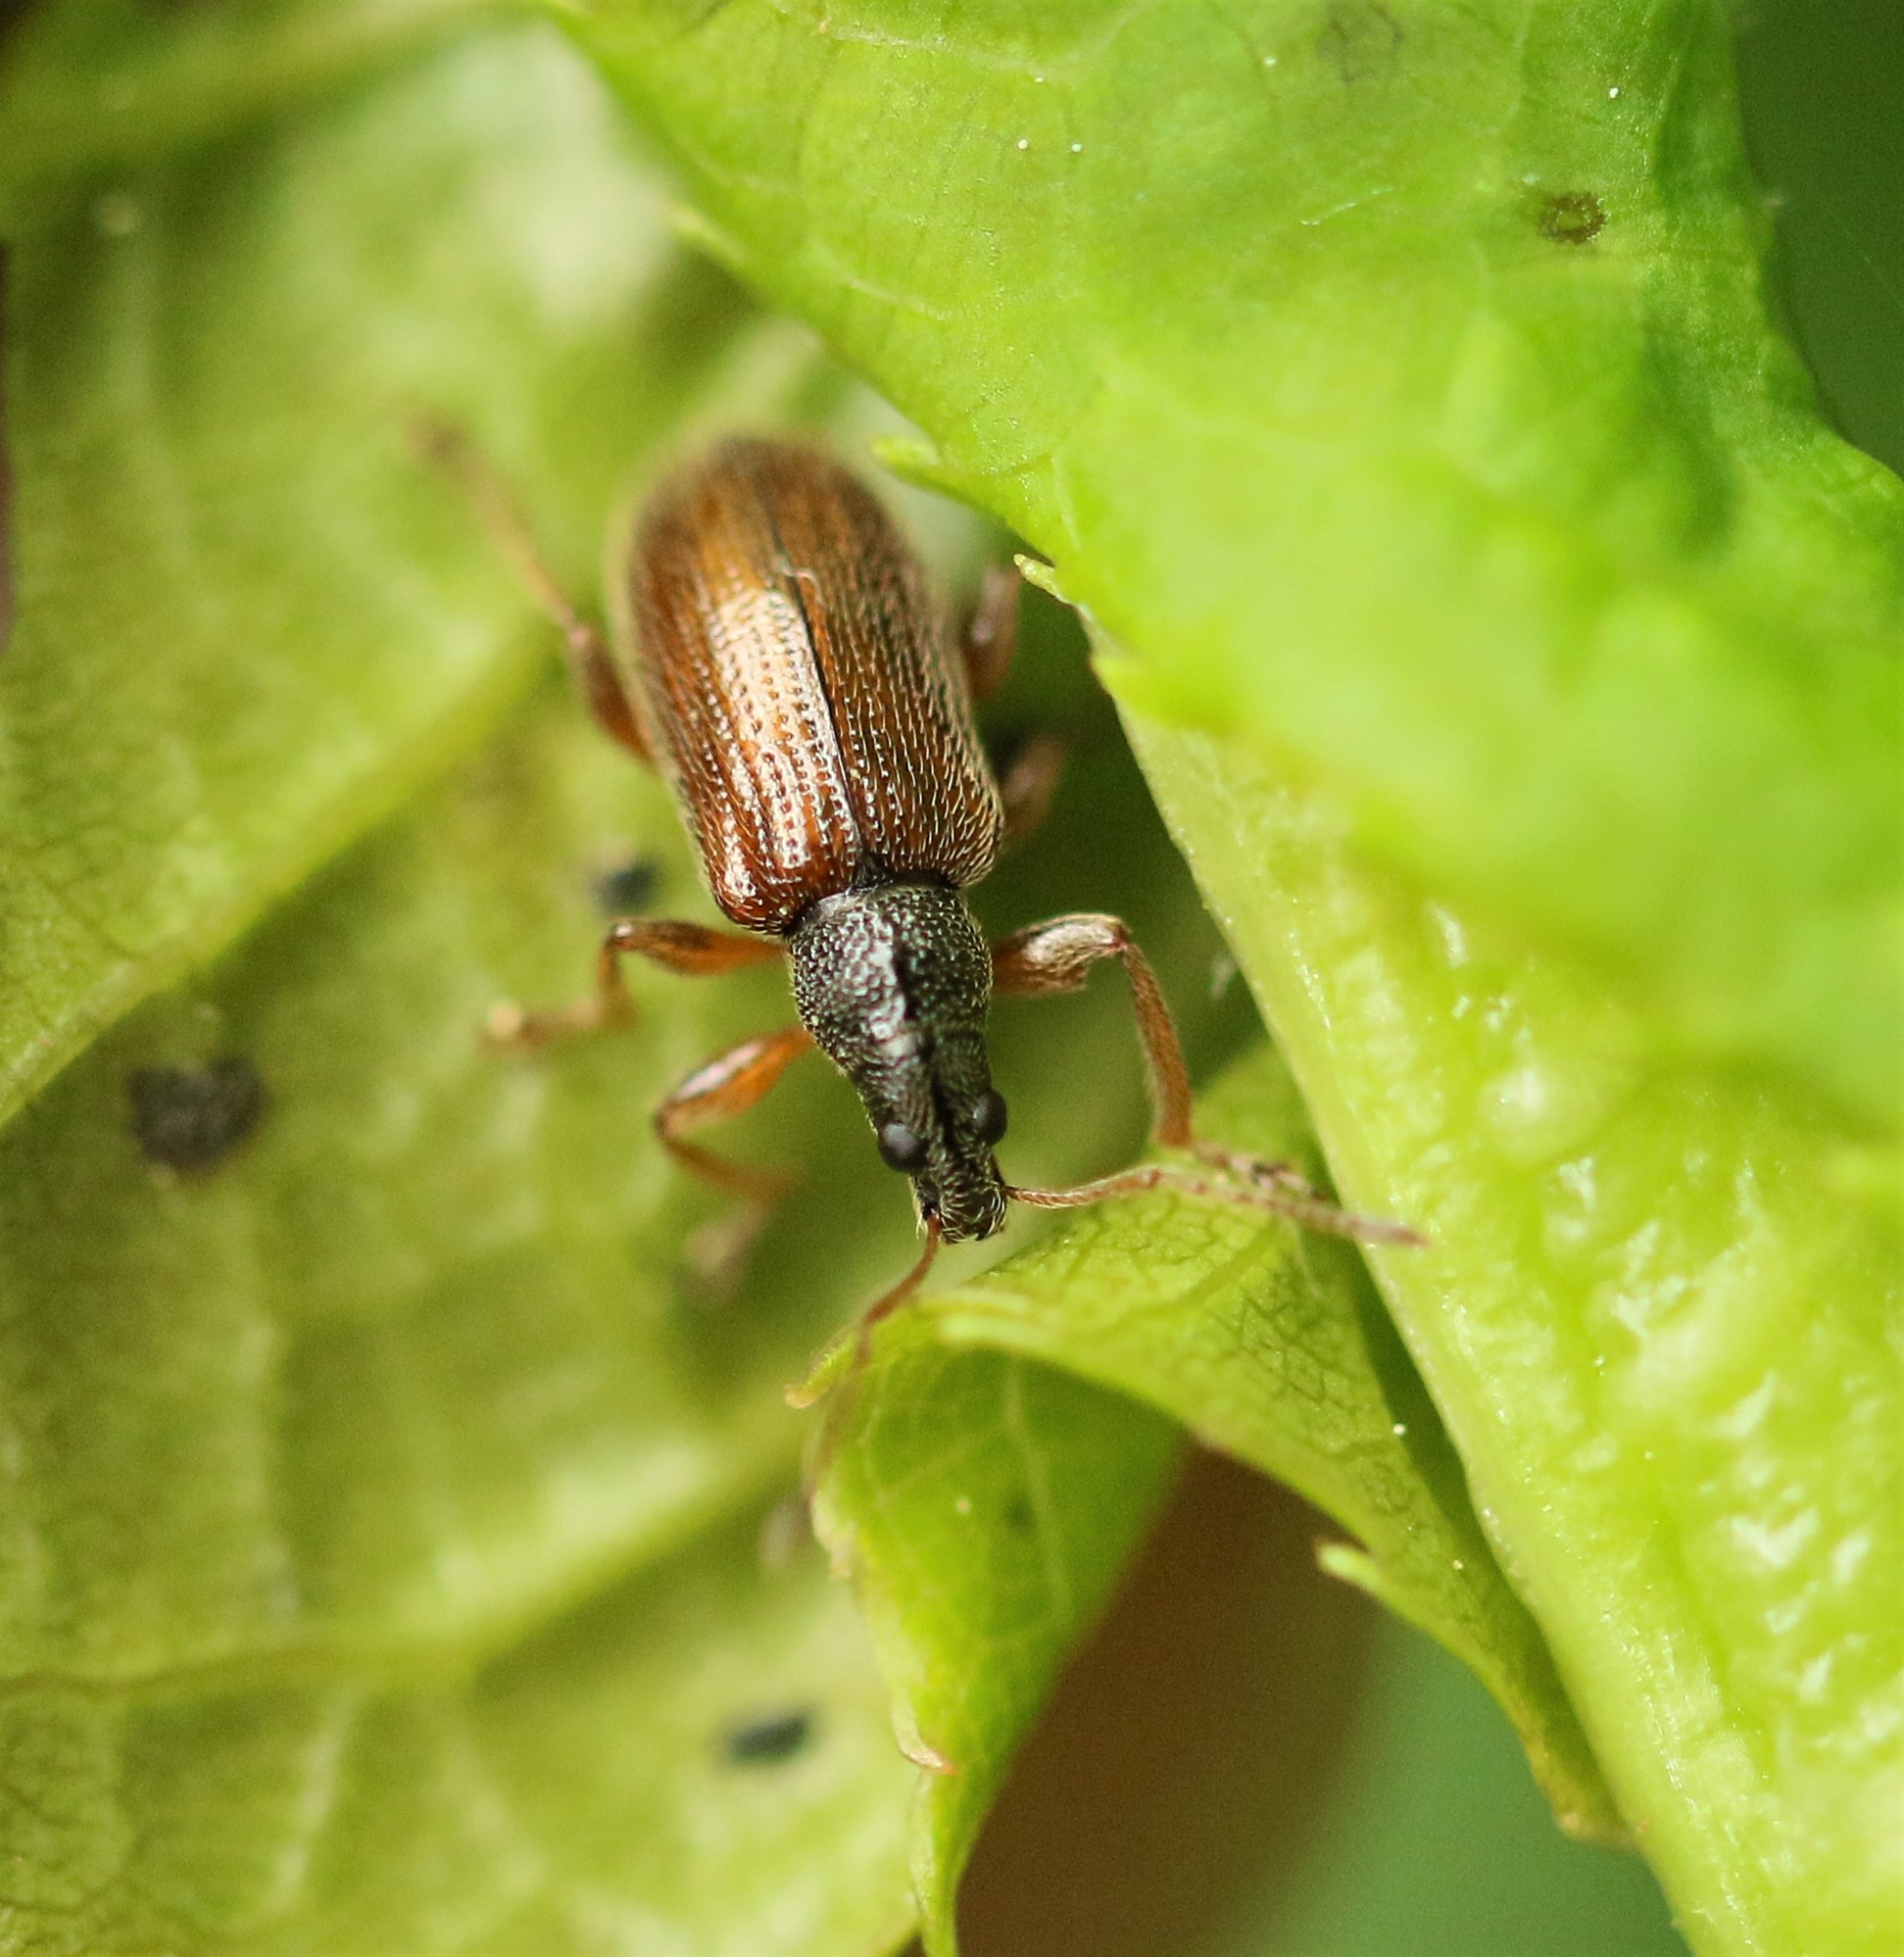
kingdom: Animalia
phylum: Arthropoda
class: Insecta
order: Coleoptera
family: Curculionidae
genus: Phyllobius
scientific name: Phyllobius oblongus
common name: Brown leaf weevil
